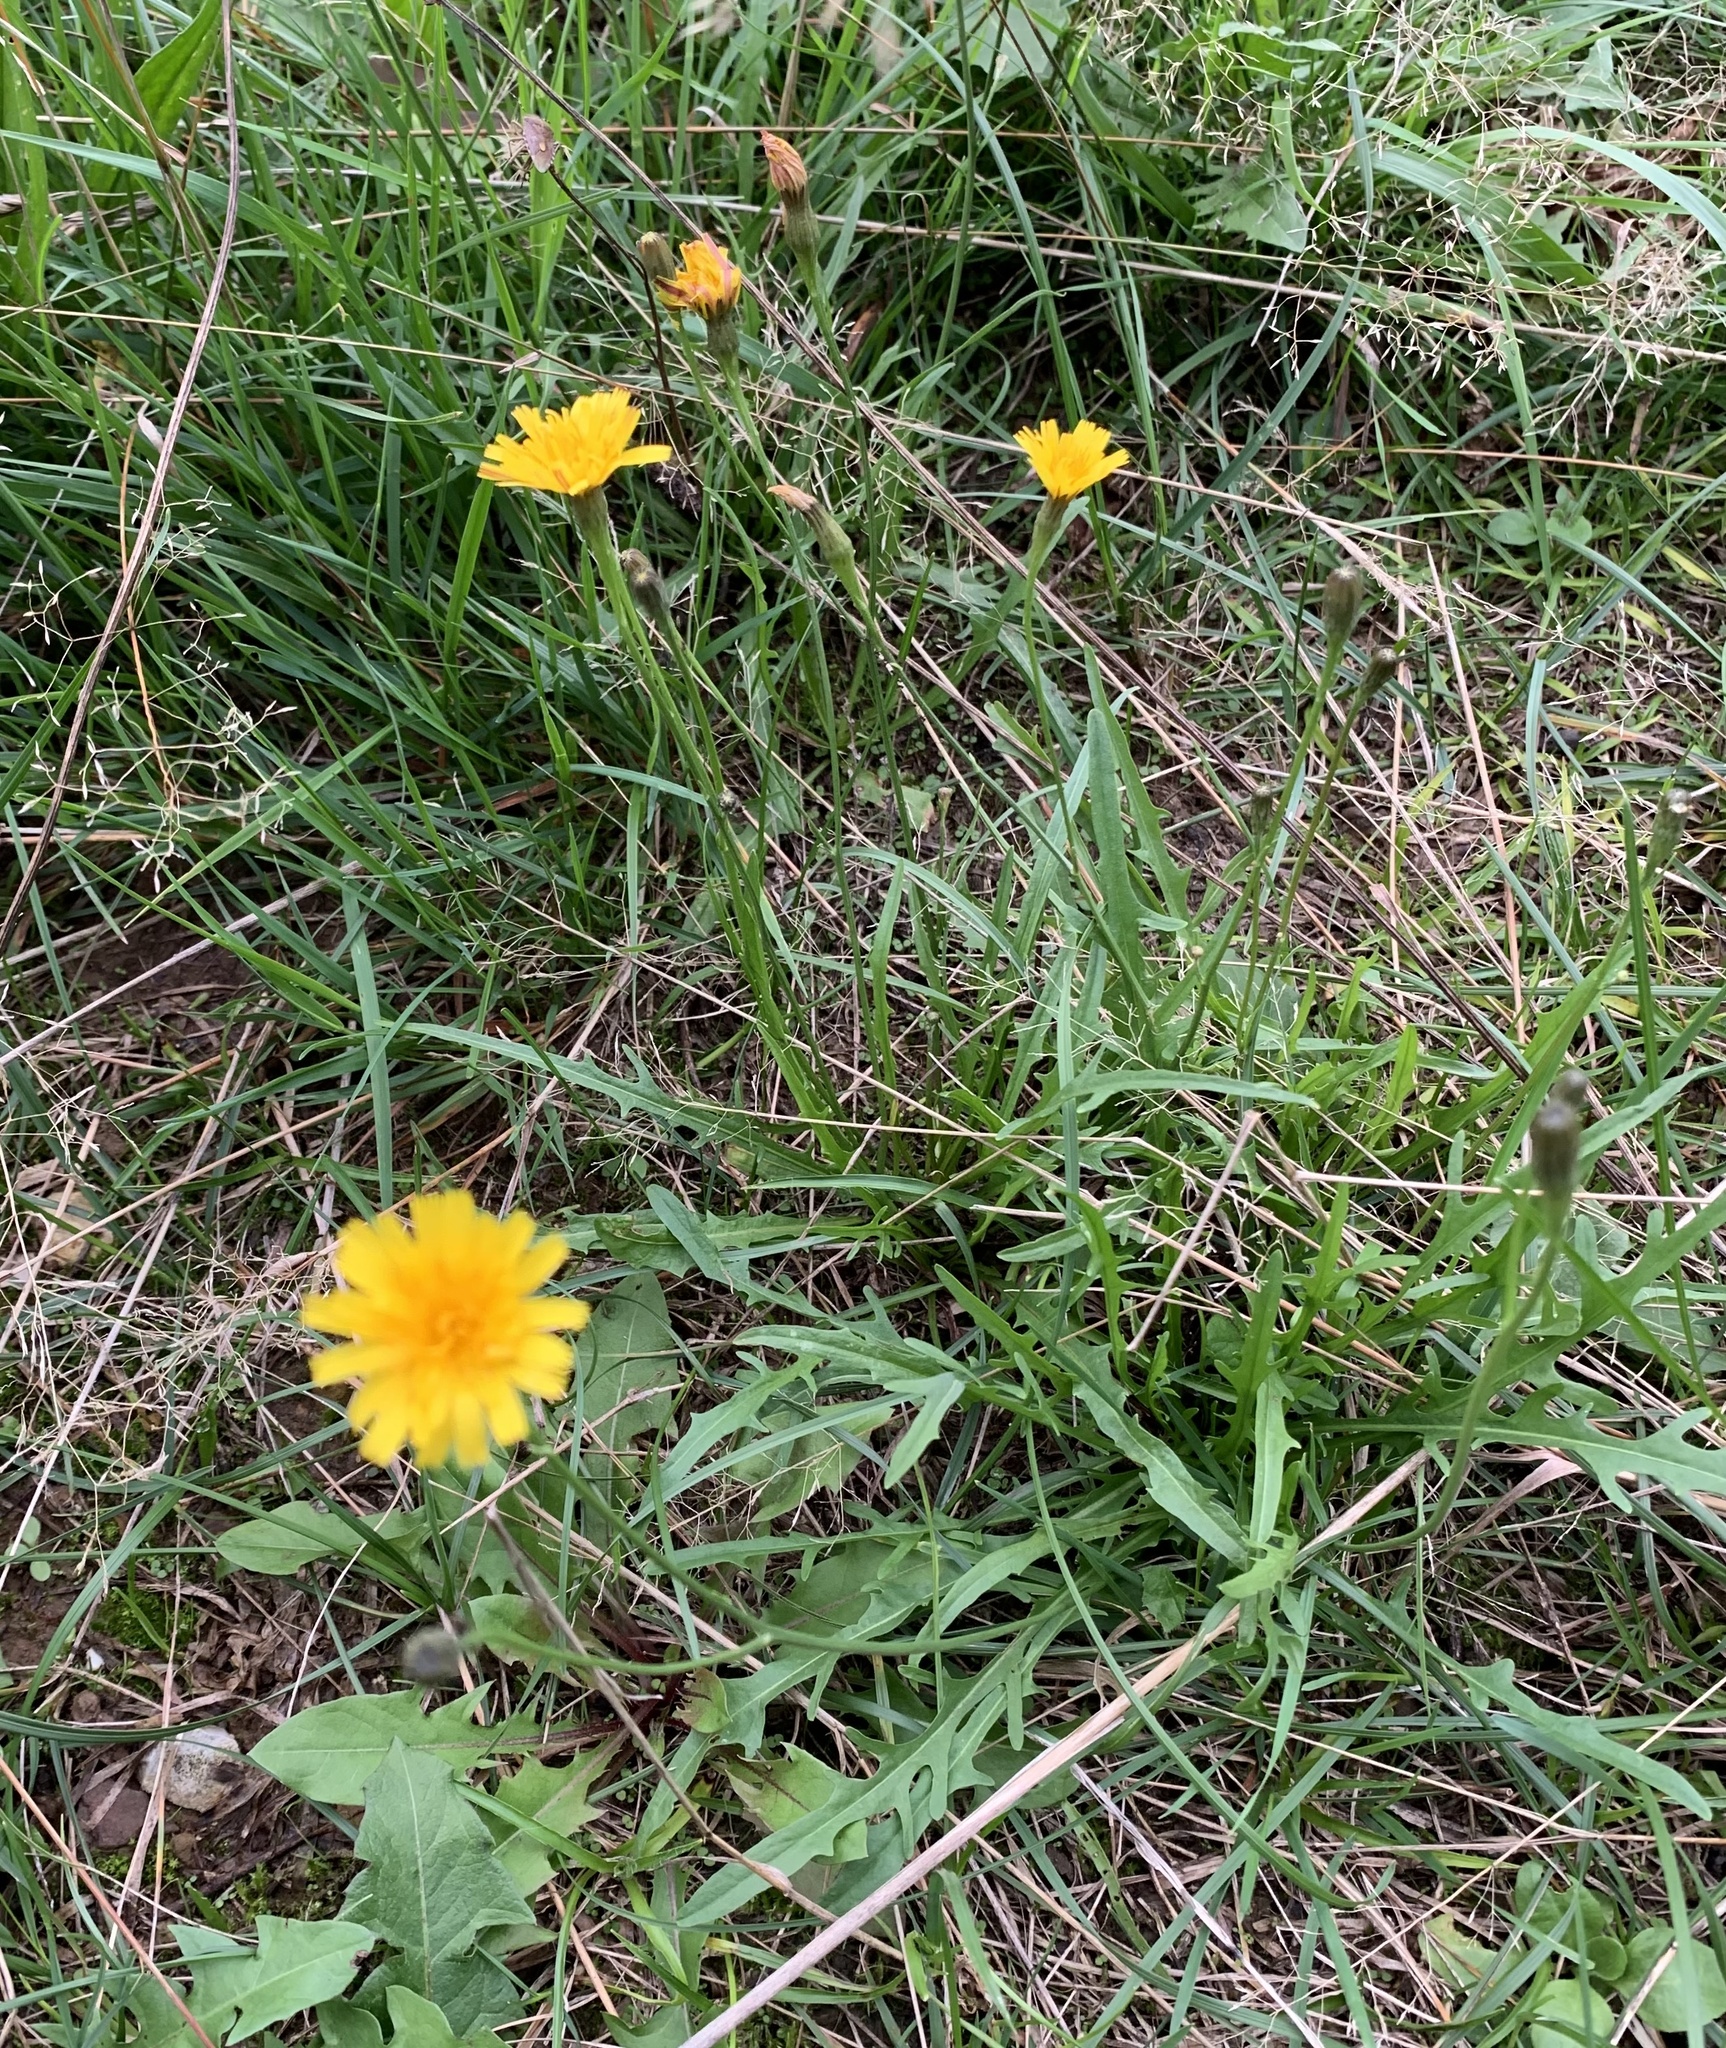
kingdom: Plantae
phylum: Tracheophyta
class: Magnoliopsida
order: Asterales
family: Asteraceae
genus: Scorzoneroides
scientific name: Scorzoneroides autumnalis
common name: Autumn hawkbit
